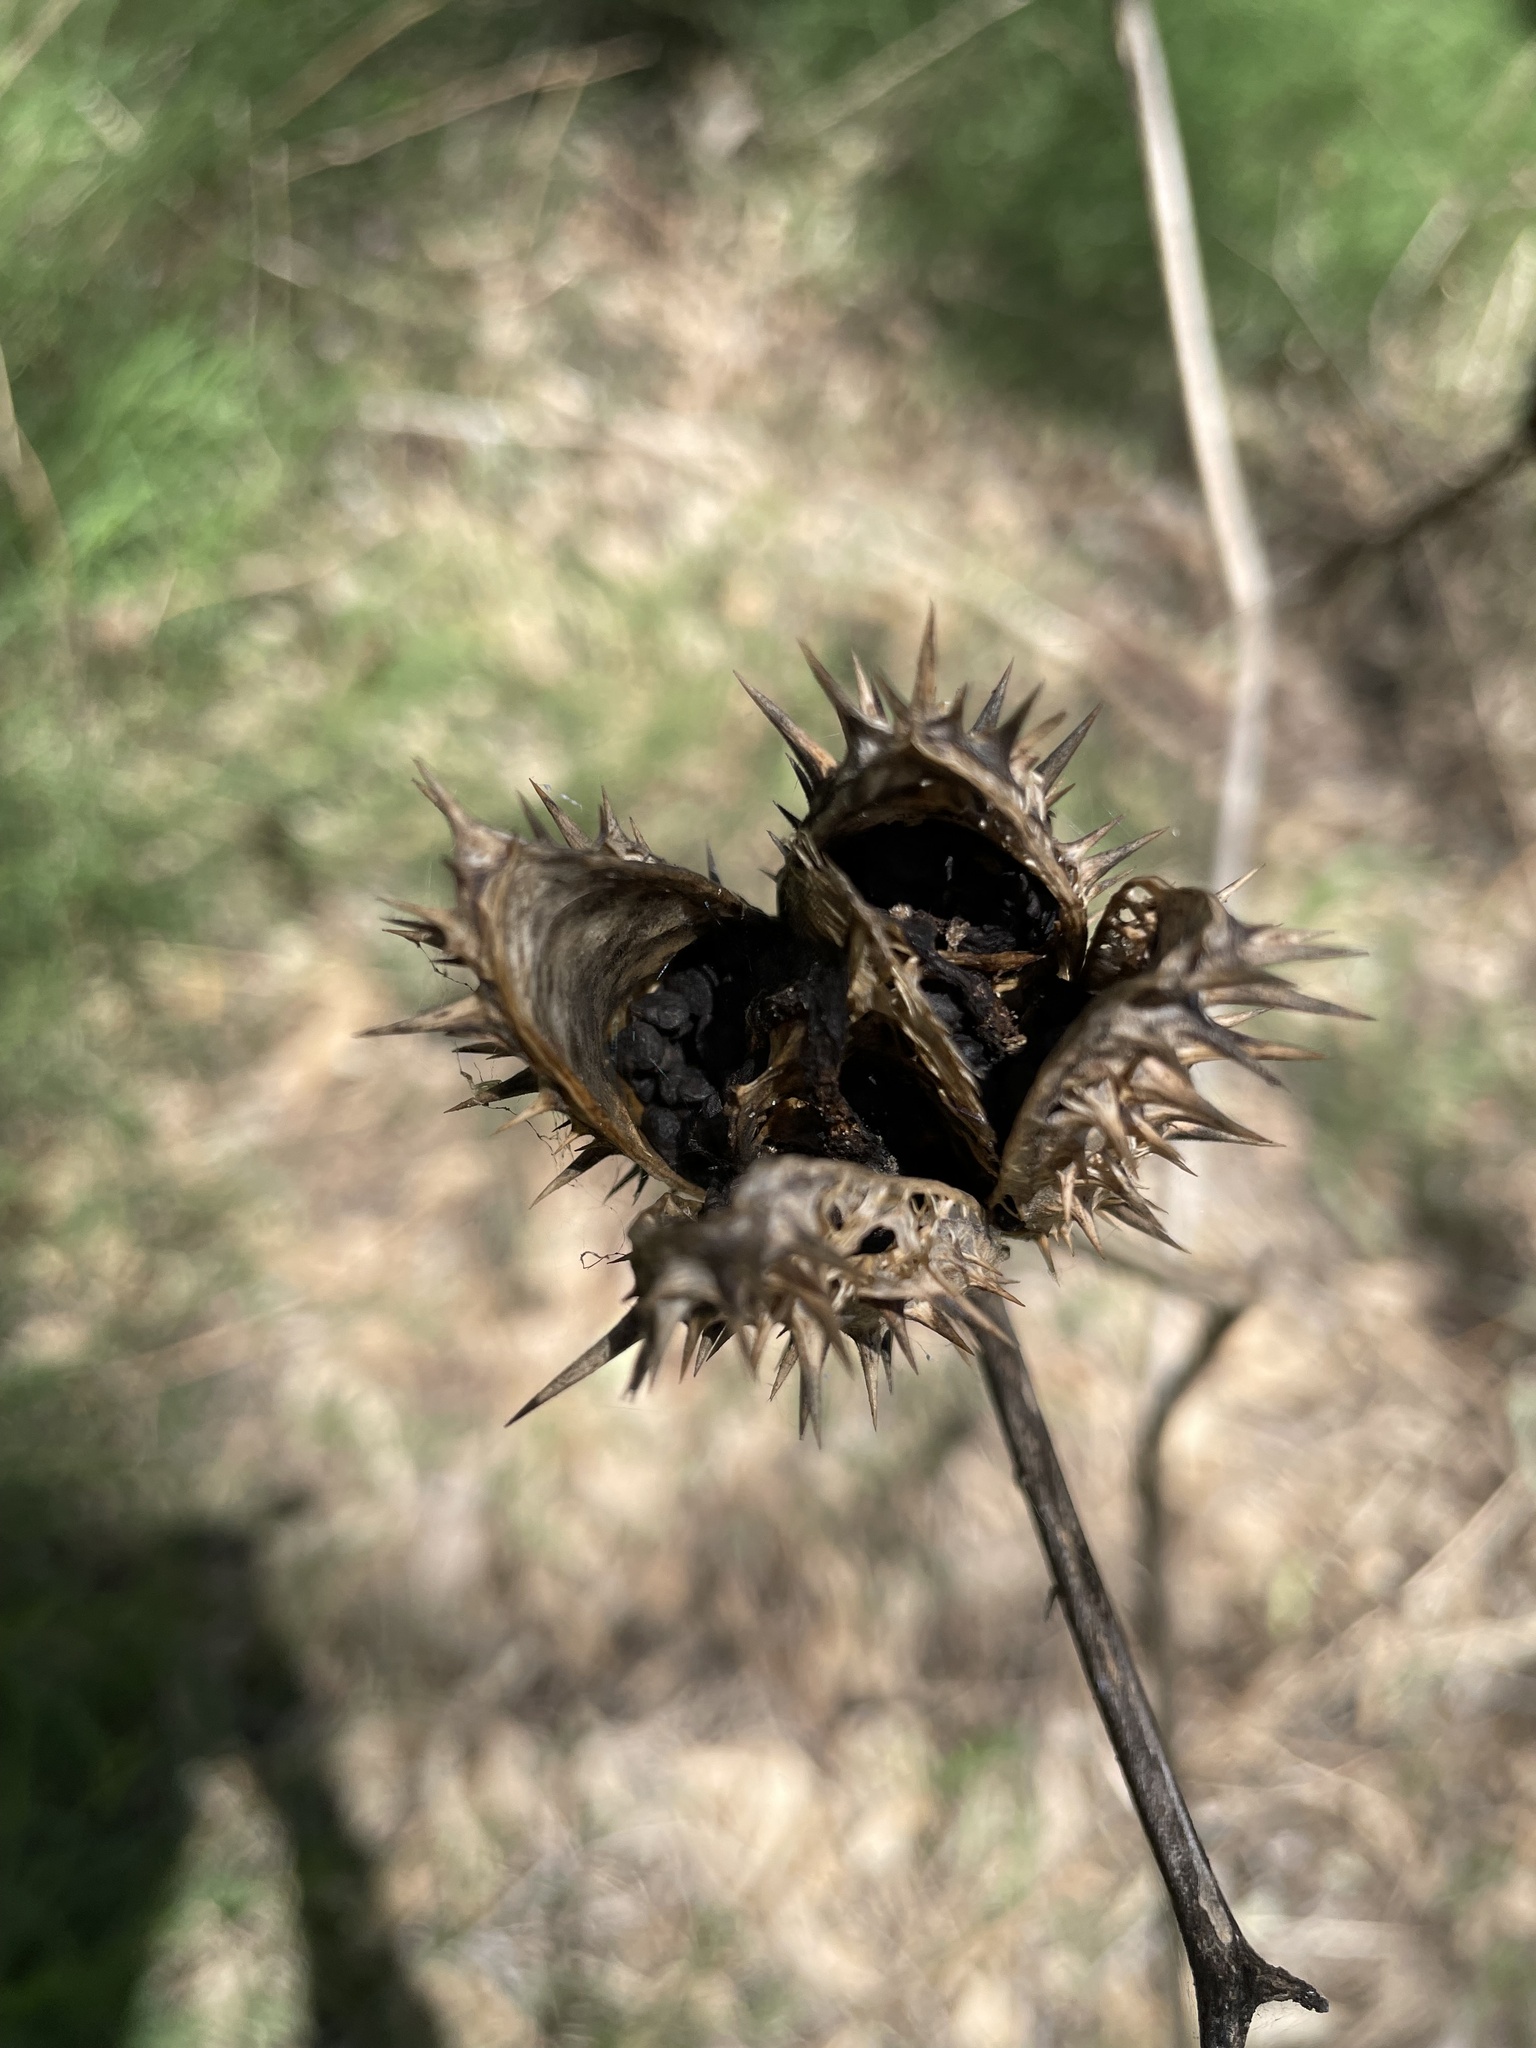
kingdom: Plantae
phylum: Tracheophyta
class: Magnoliopsida
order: Solanales
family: Solanaceae
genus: Datura
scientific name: Datura stramonium
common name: Thorn-apple
